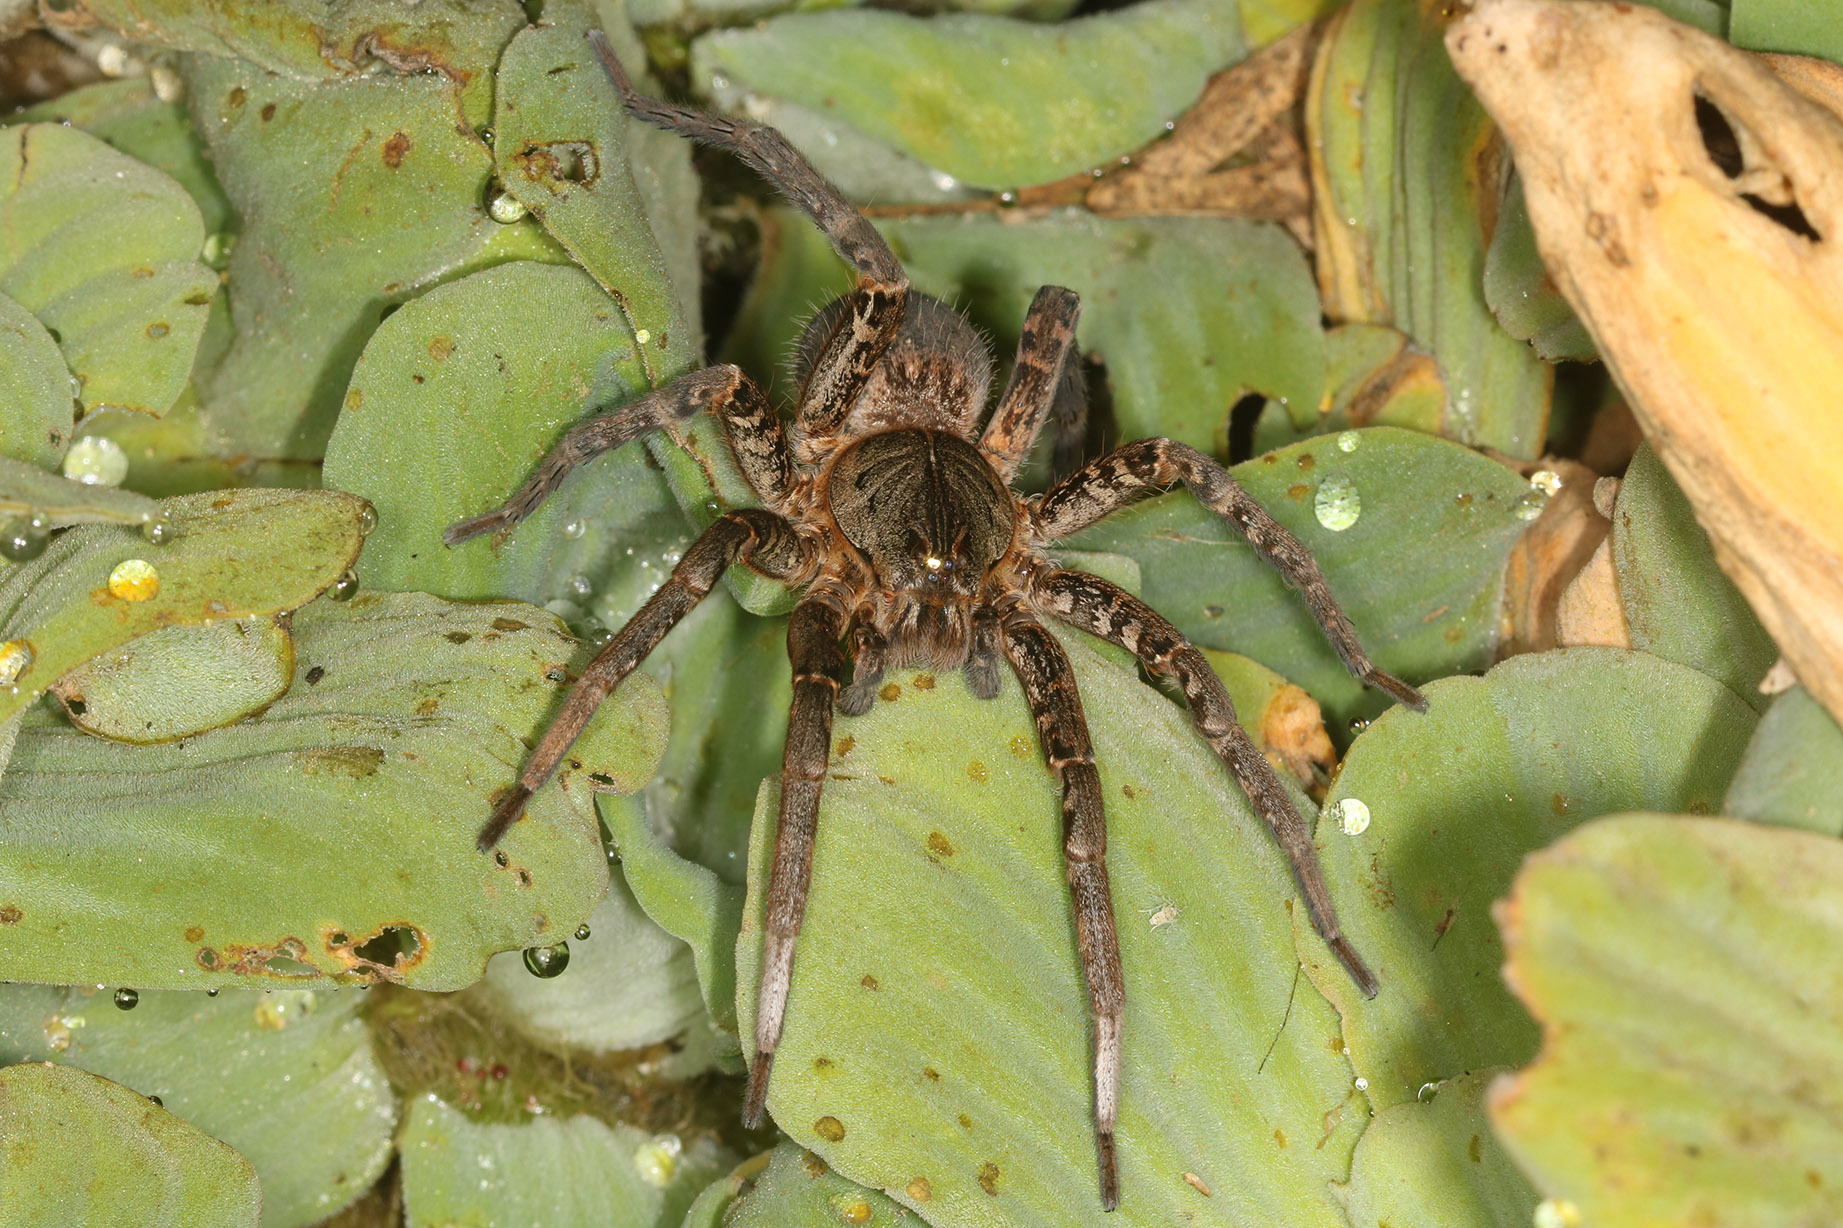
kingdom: Animalia
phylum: Arthropoda
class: Arachnida
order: Araneae
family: Ctenidae
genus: Ancylometes
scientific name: Ancylometes concolor
